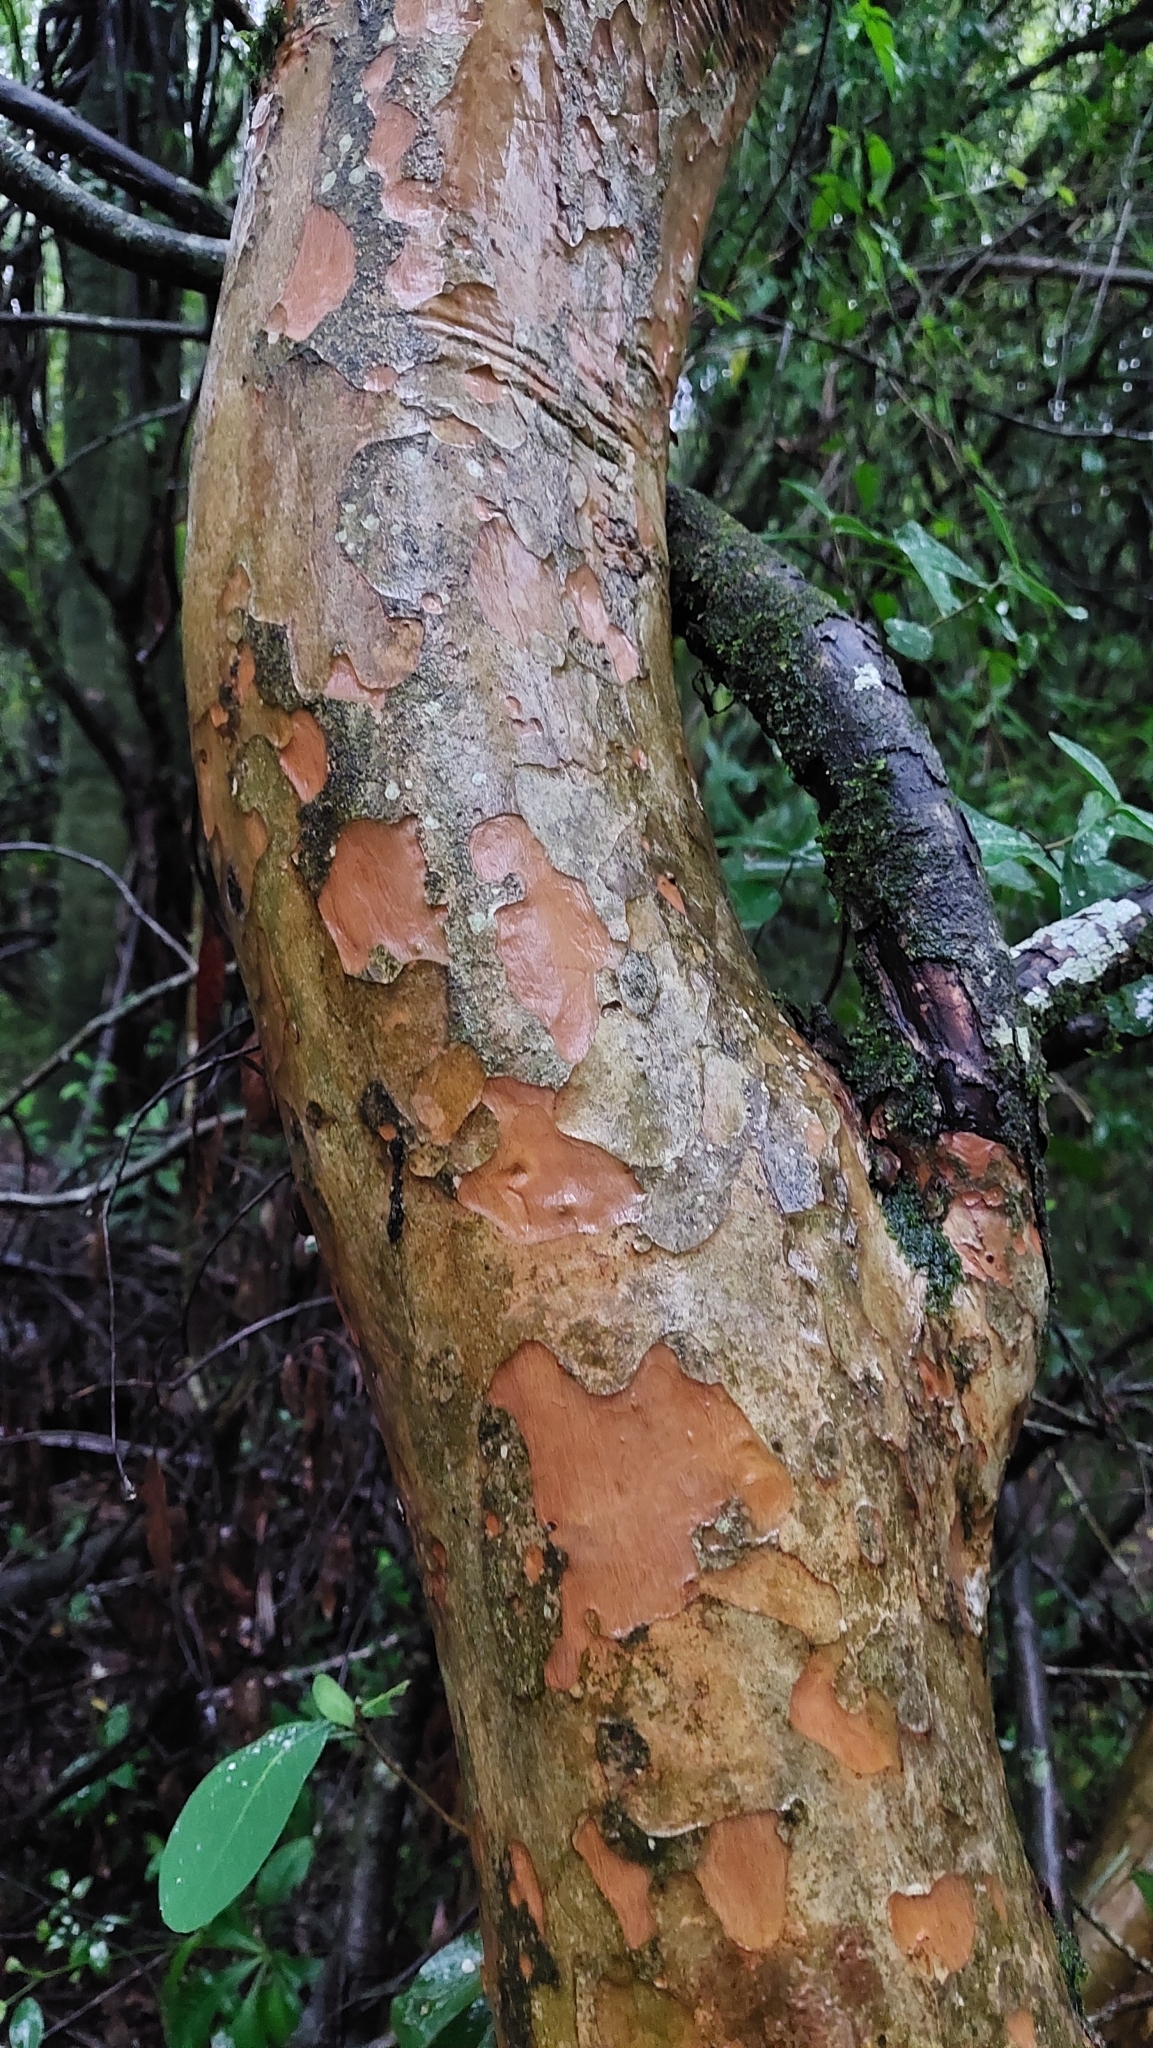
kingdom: Plantae
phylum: Tracheophyta
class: Magnoliopsida
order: Myrtales
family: Myrtaceae
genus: Myrcianthes
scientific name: Myrcianthes cisplatensis
